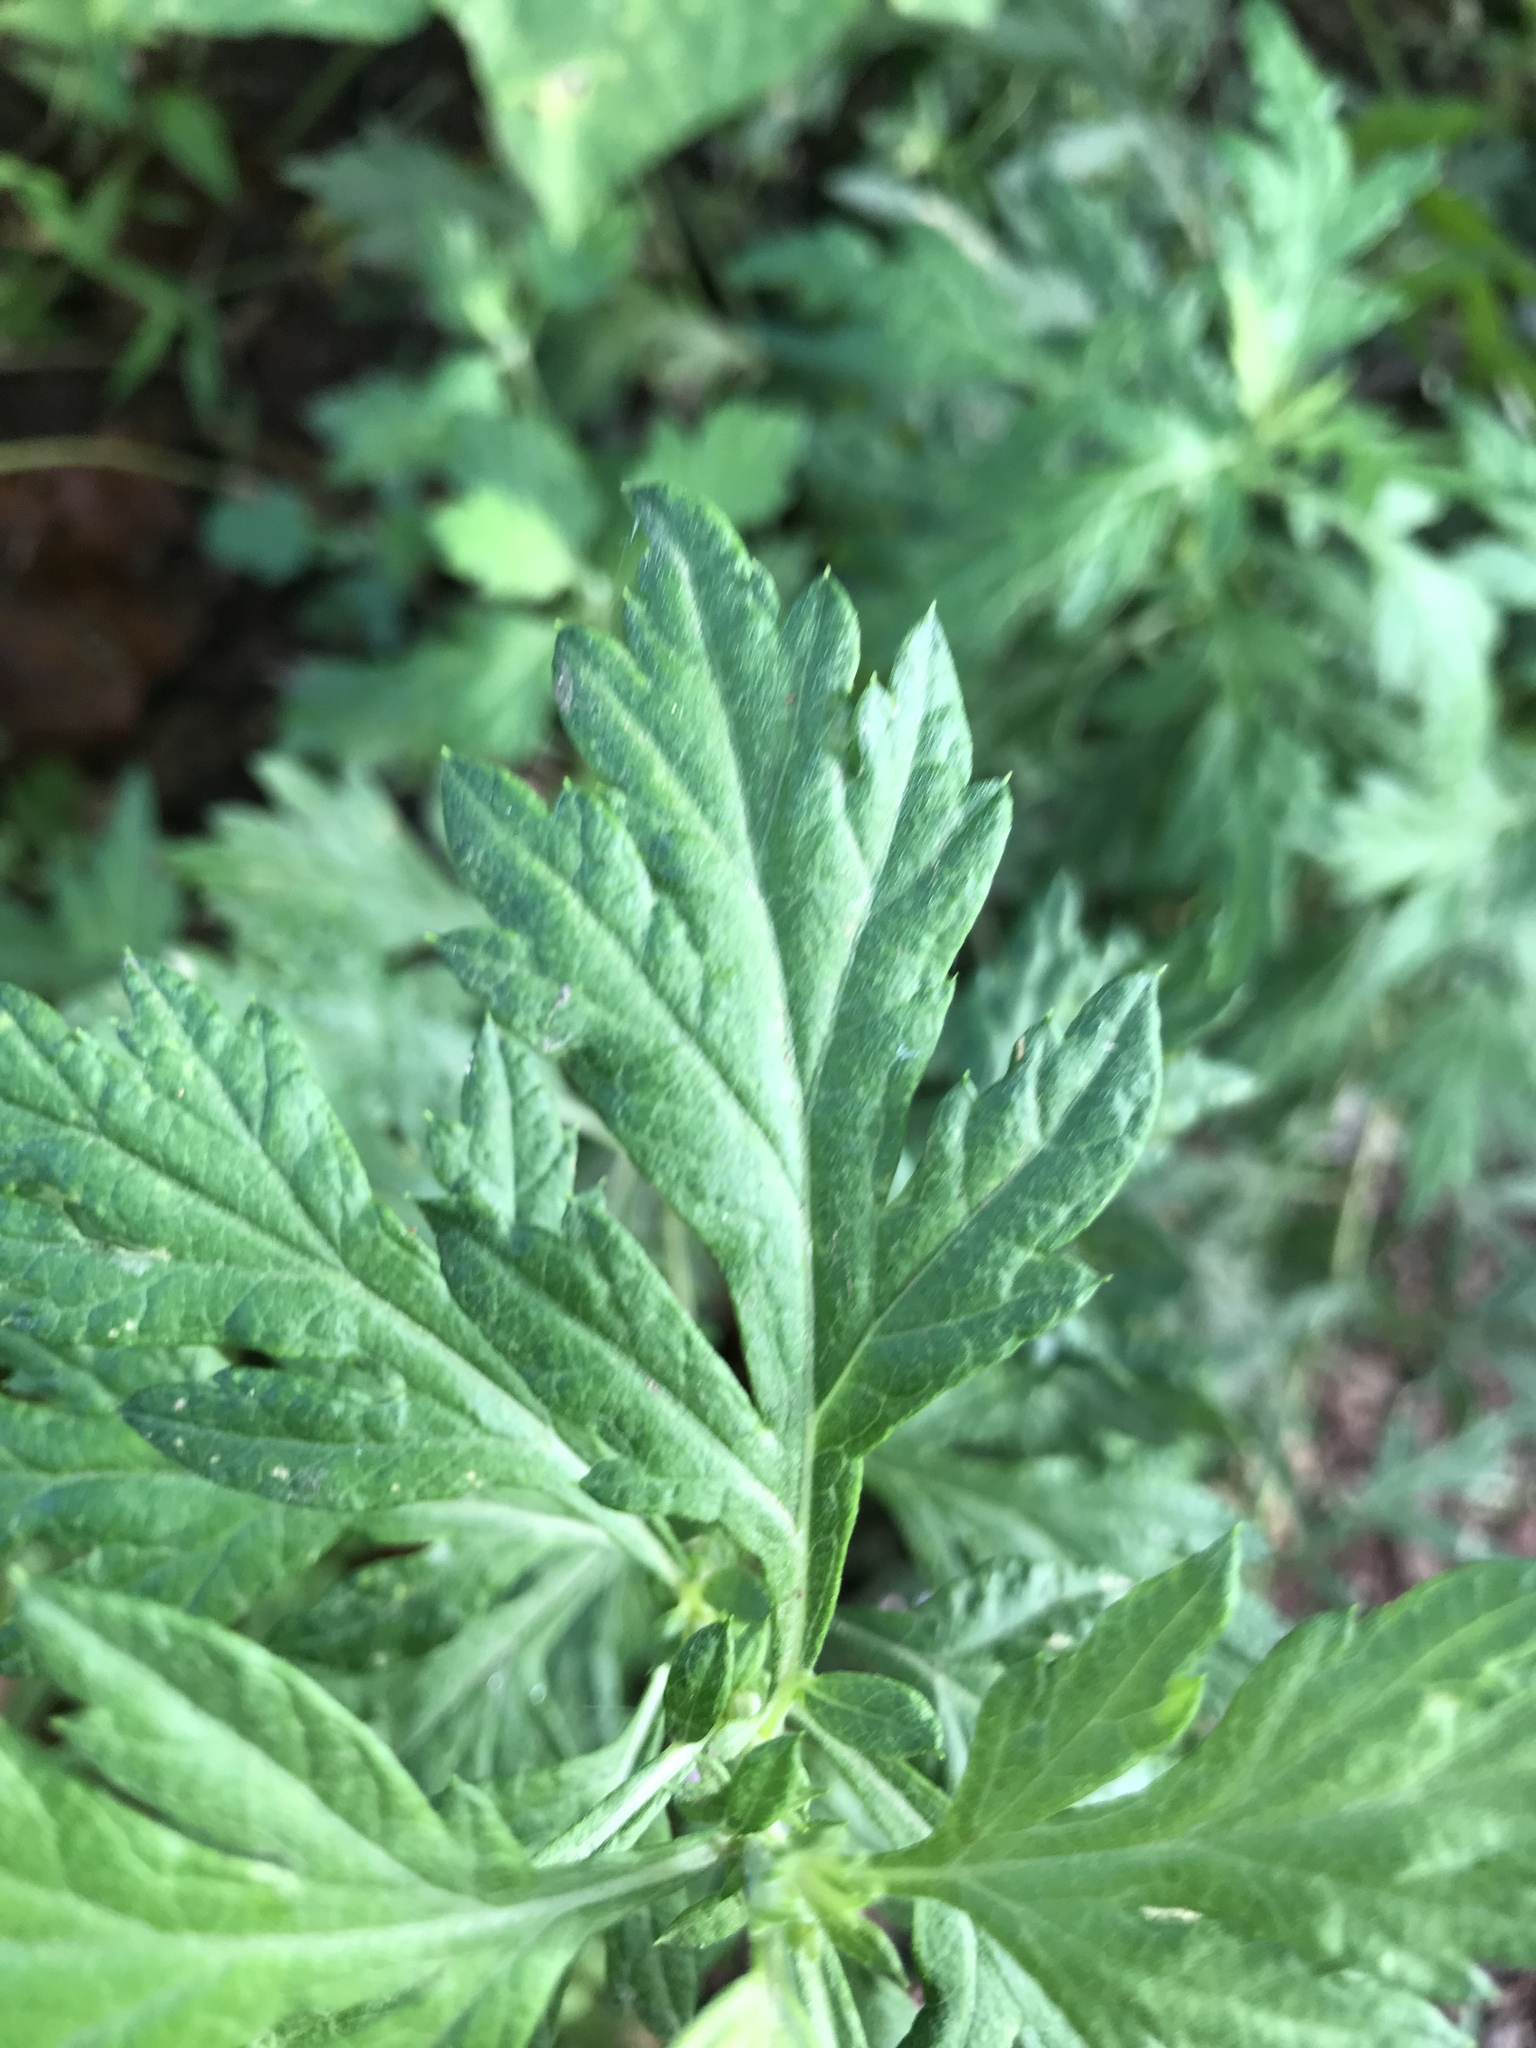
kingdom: Plantae
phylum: Tracheophyta
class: Magnoliopsida
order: Asterales
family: Asteraceae
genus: Artemisia
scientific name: Artemisia vulgaris
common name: Mugwort
